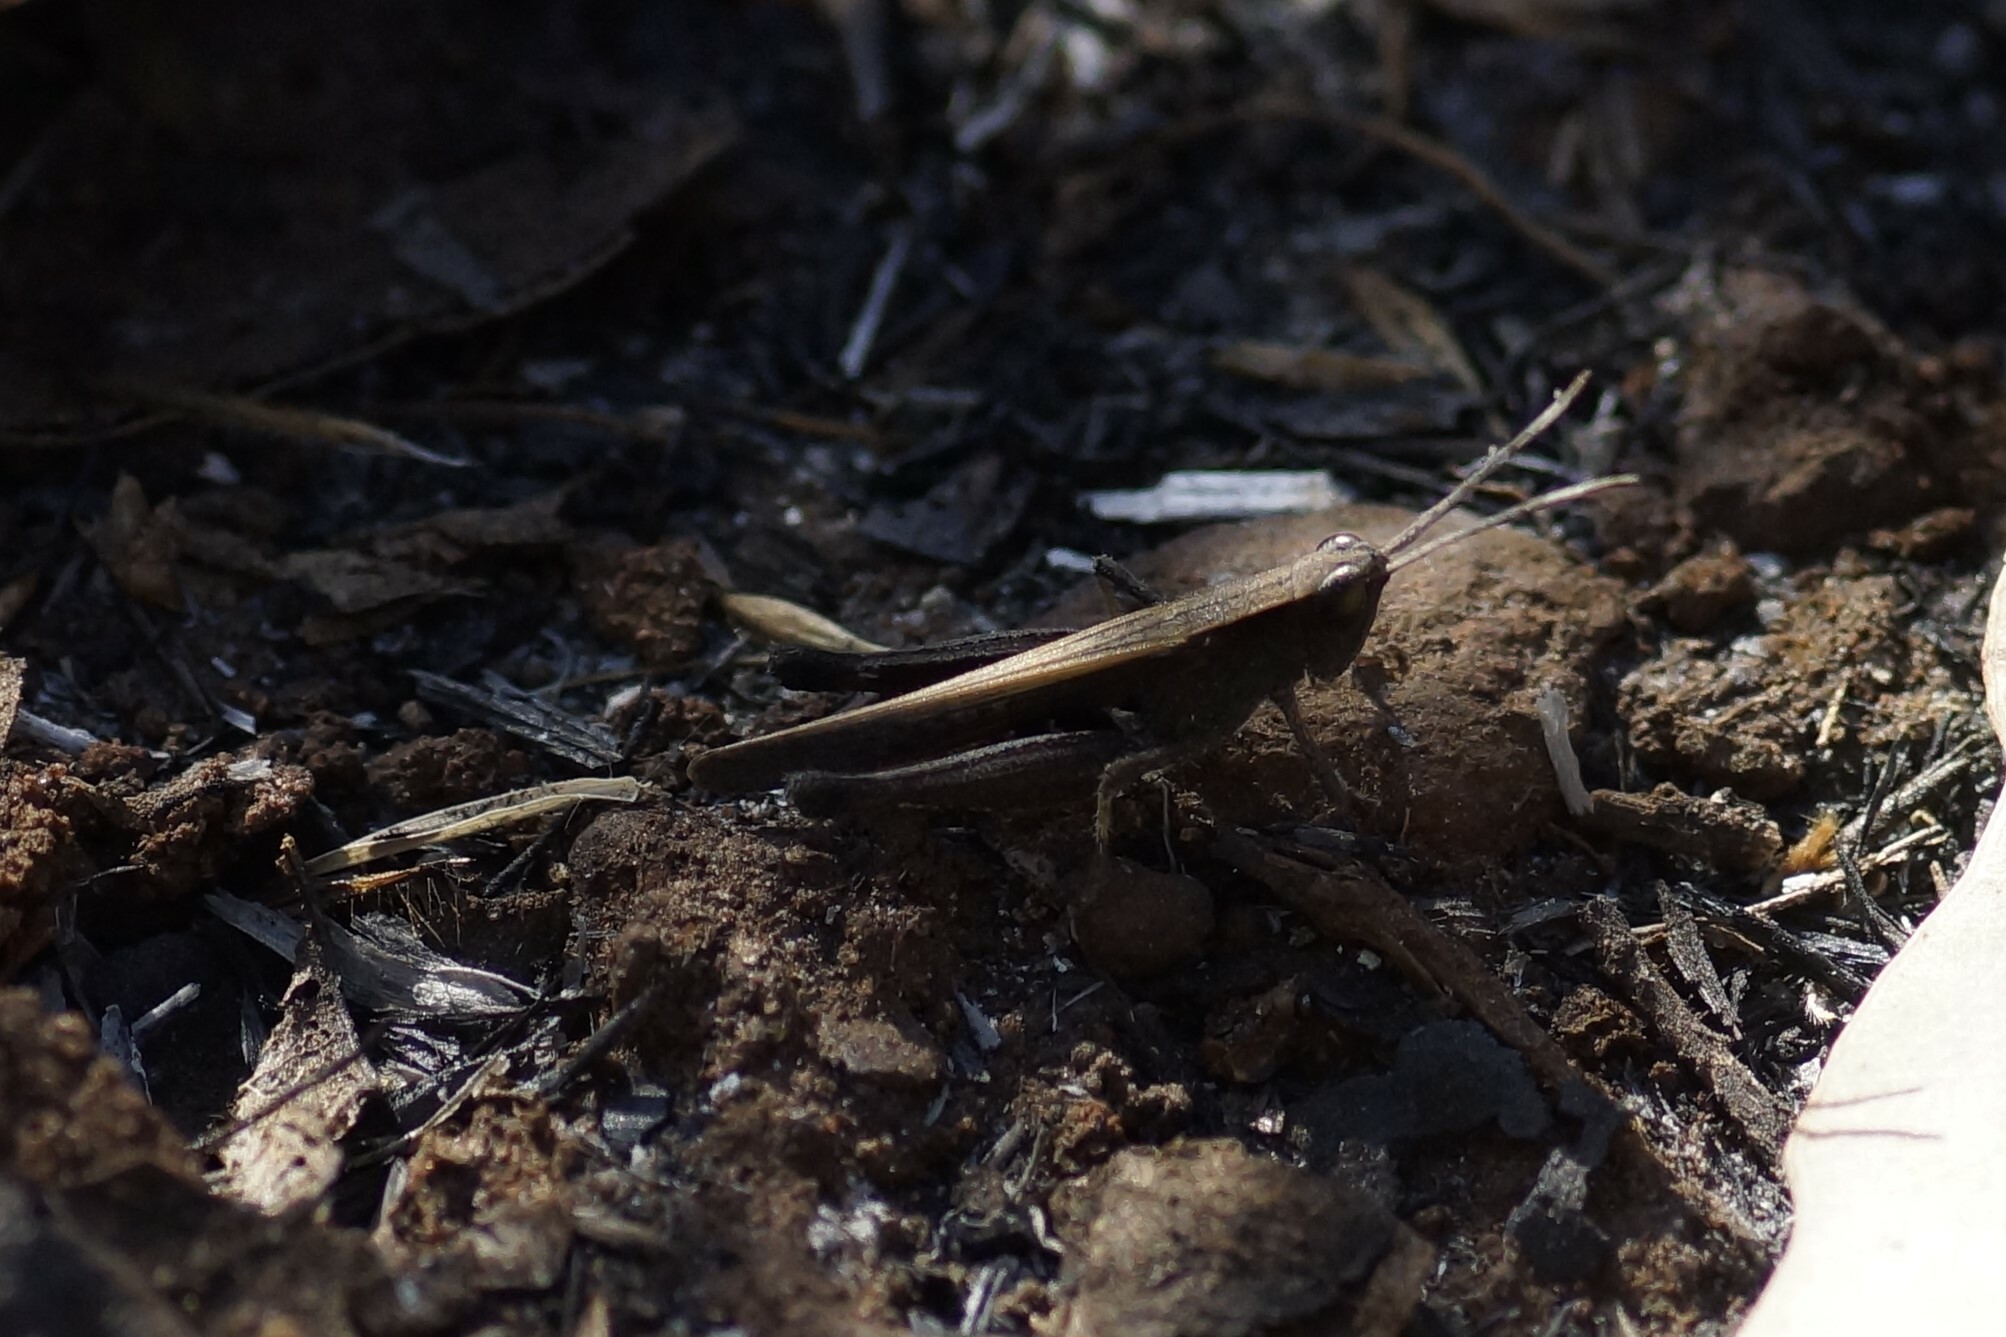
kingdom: Animalia
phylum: Arthropoda
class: Insecta
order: Orthoptera
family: Acrididae
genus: Rectitropis
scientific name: Rectitropis
